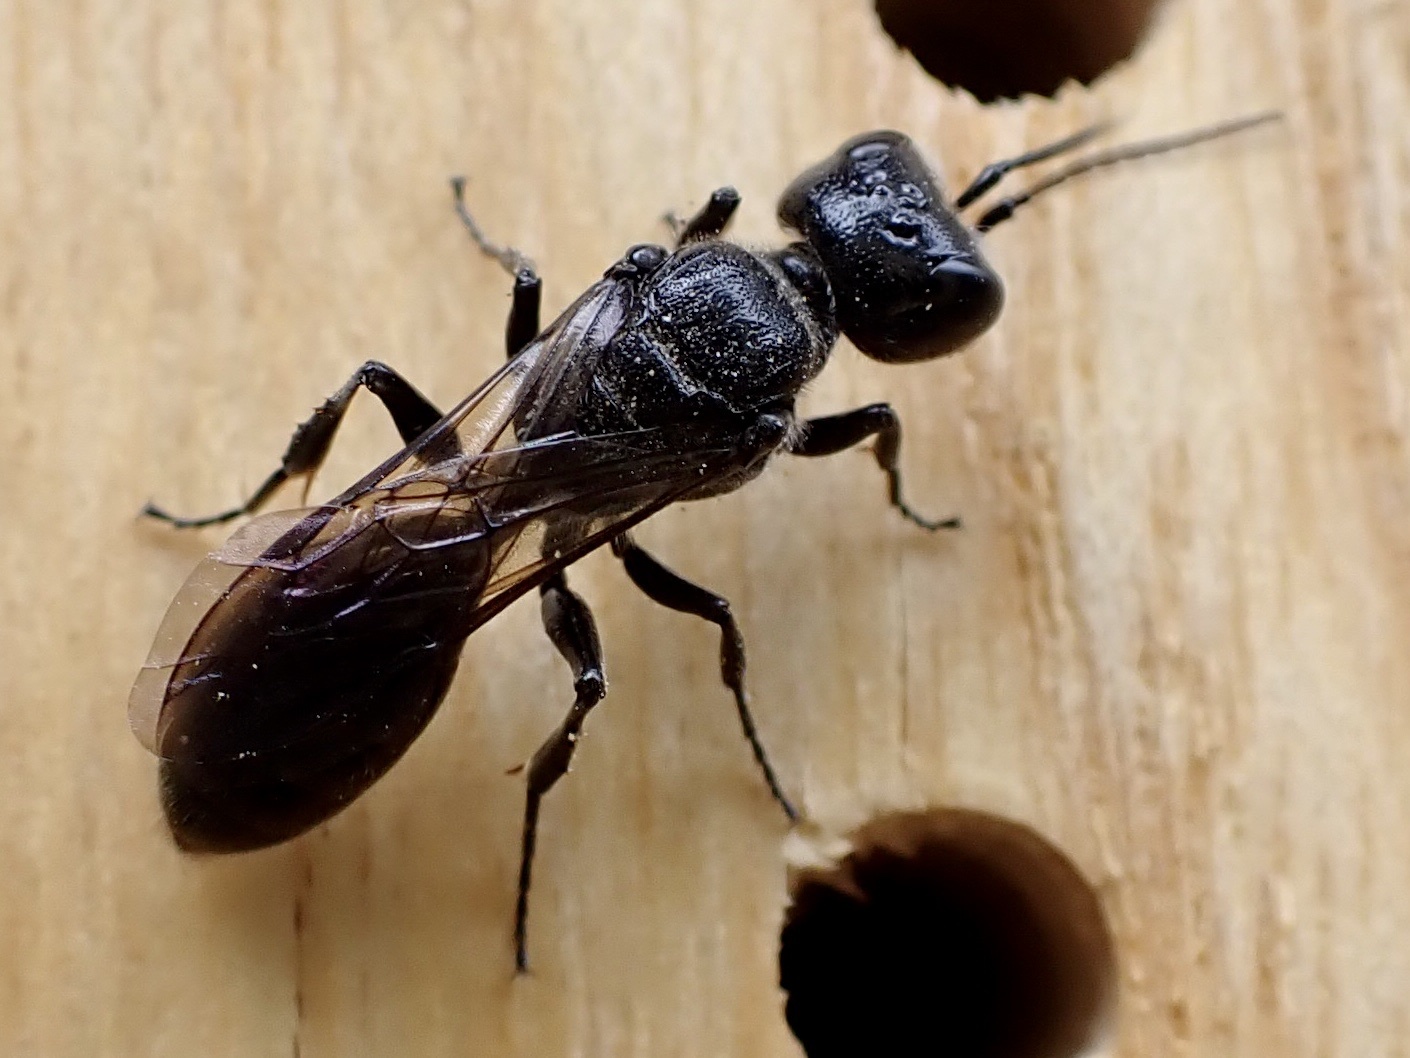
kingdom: Animalia
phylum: Arthropoda
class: Insecta
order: Hymenoptera
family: Crabronidae
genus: Pemphredon
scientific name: Pemphredon
